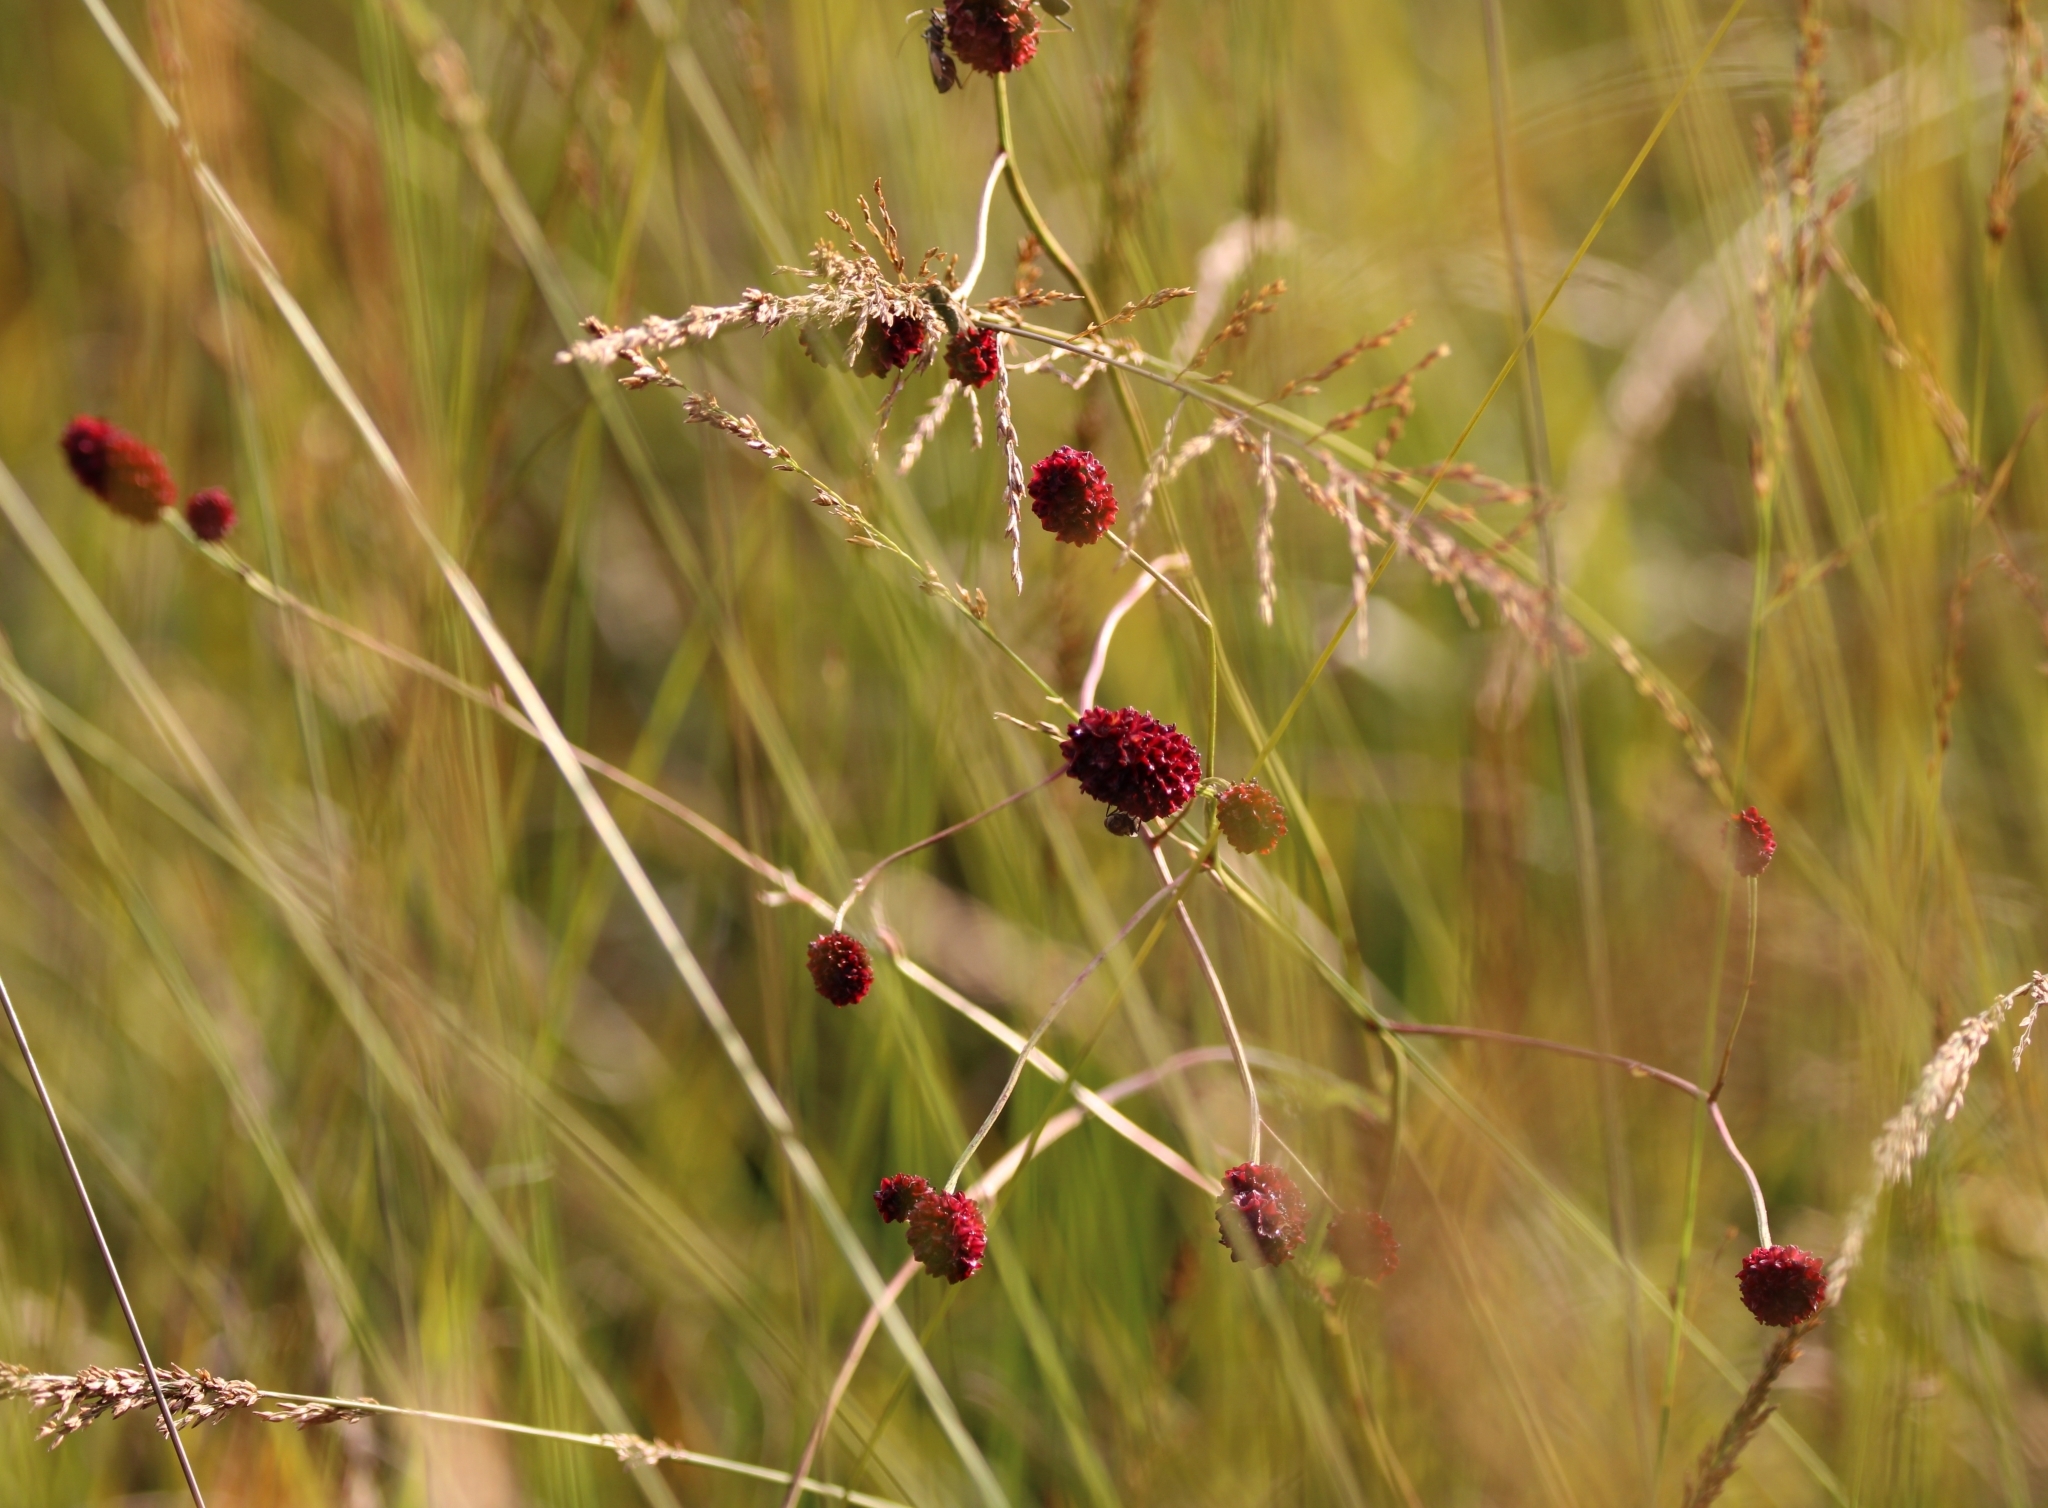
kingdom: Plantae
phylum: Tracheophyta
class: Magnoliopsida
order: Rosales
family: Rosaceae
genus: Sanguisorba
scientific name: Sanguisorba officinalis
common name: Great burnet
